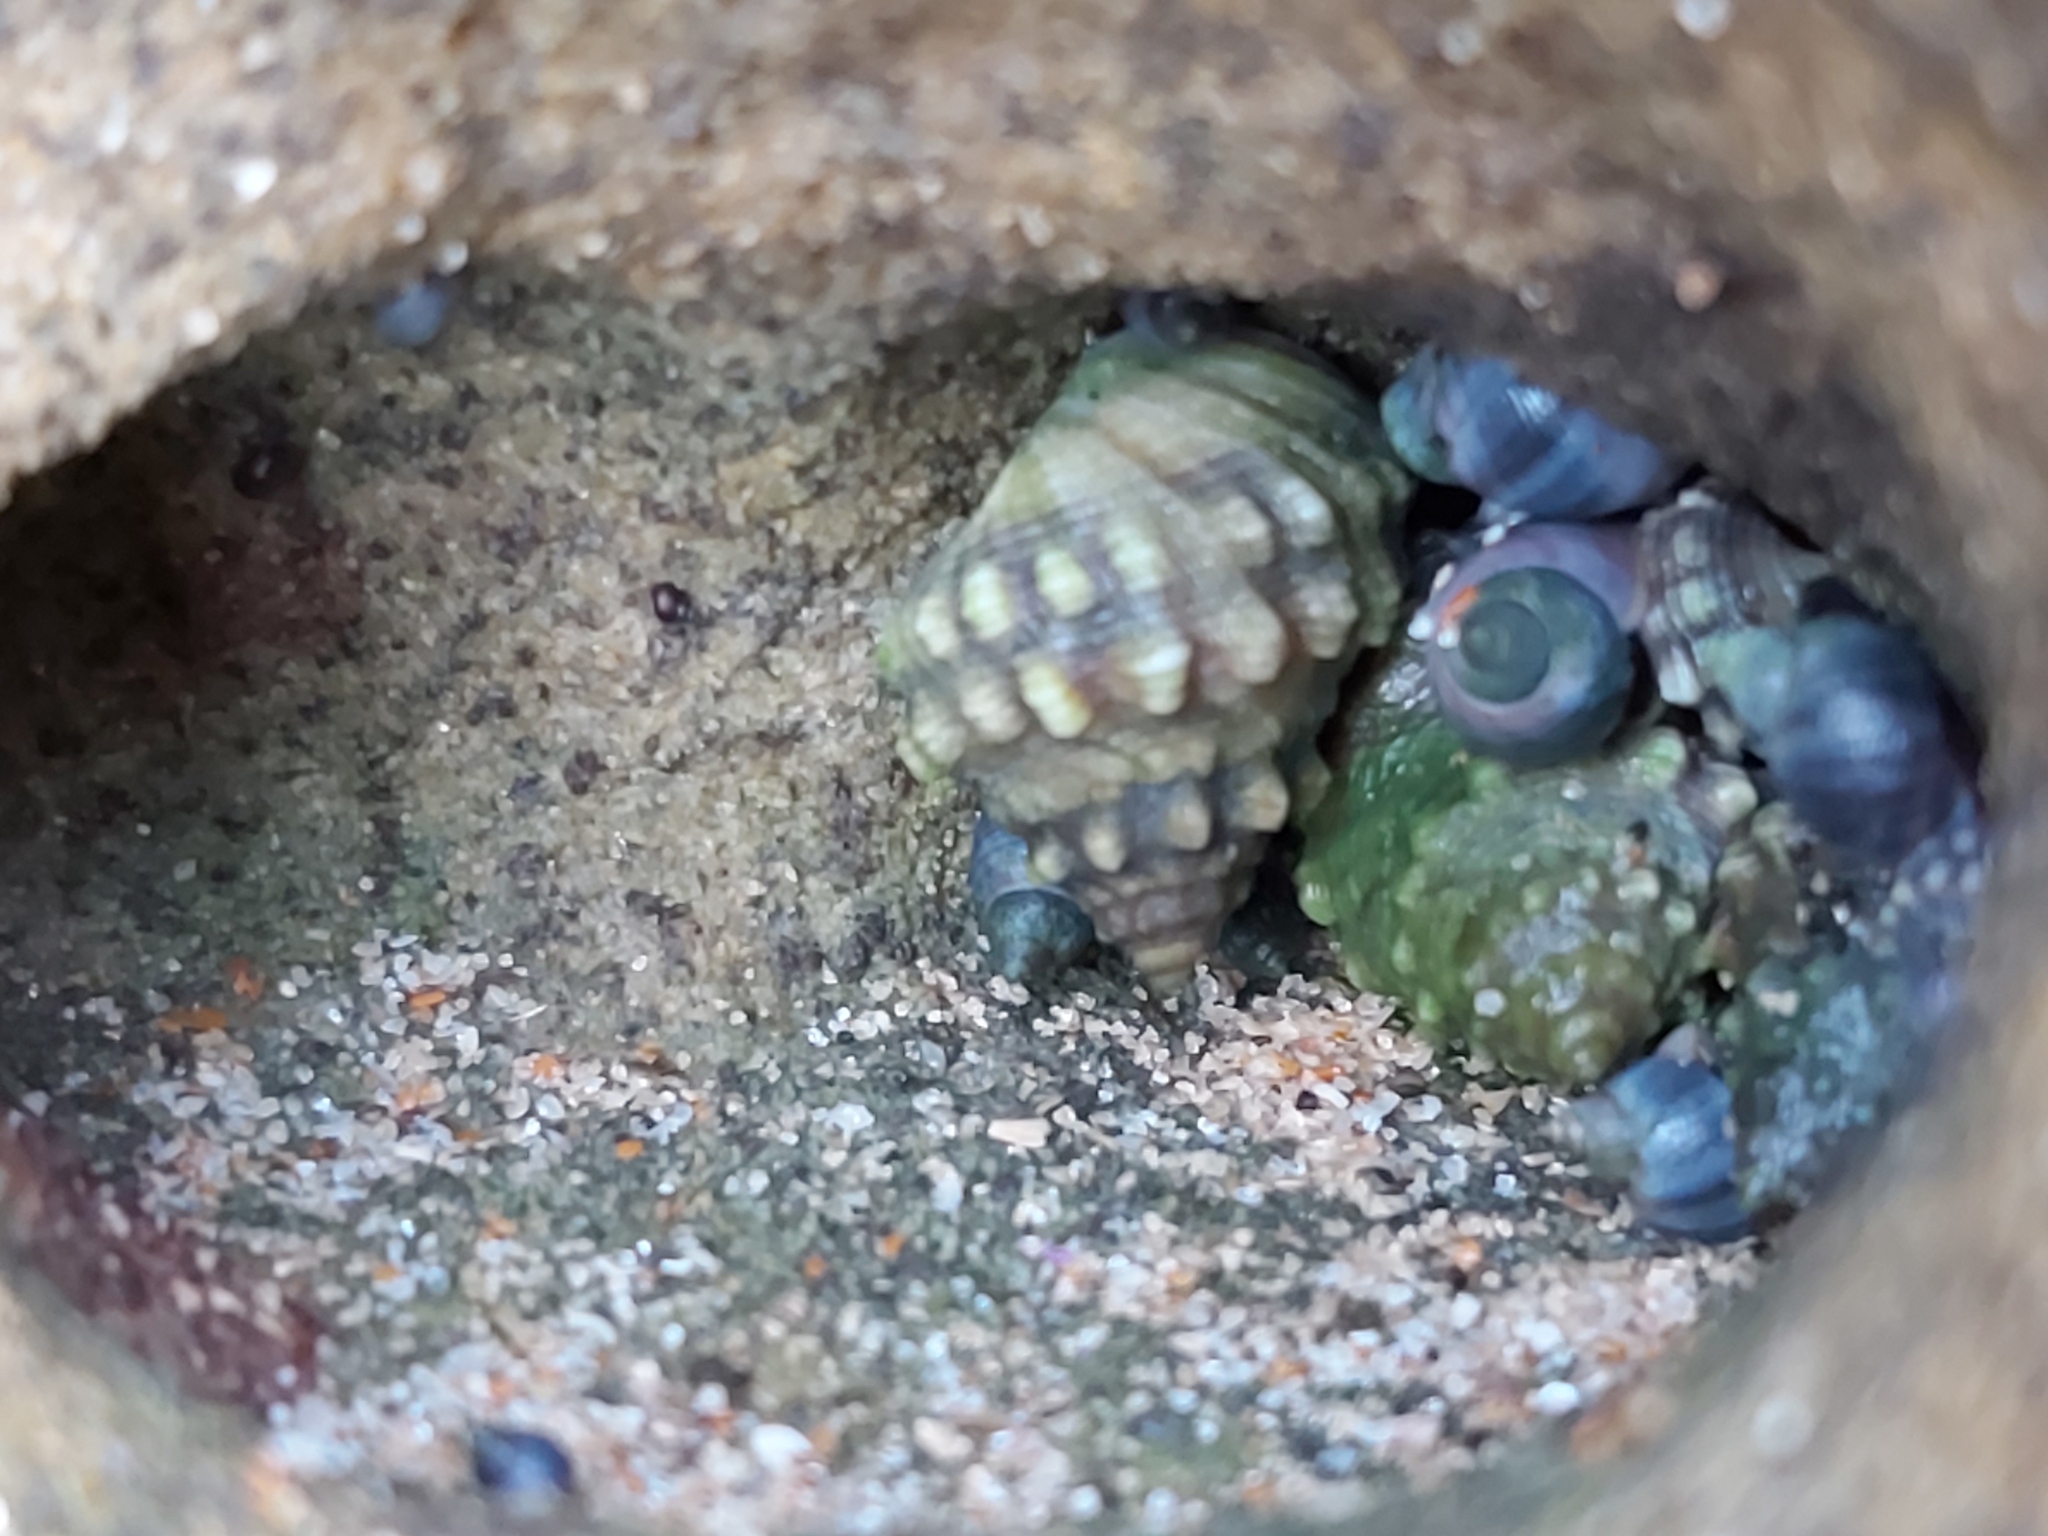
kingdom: Animalia
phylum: Mollusca
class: Gastropoda
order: Littorinimorpha
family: Littorinidae
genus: Nodilittorina
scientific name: Nodilittorina pyramidalis
